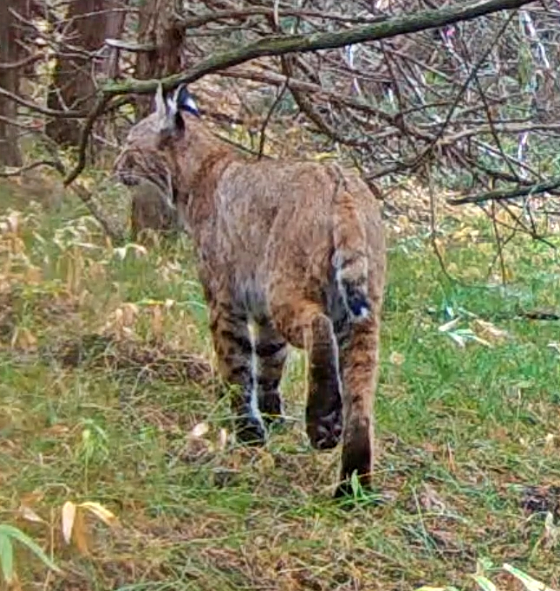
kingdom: Animalia
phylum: Chordata
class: Mammalia
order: Carnivora
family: Felidae
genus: Lynx
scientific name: Lynx rufus
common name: Bobcat
